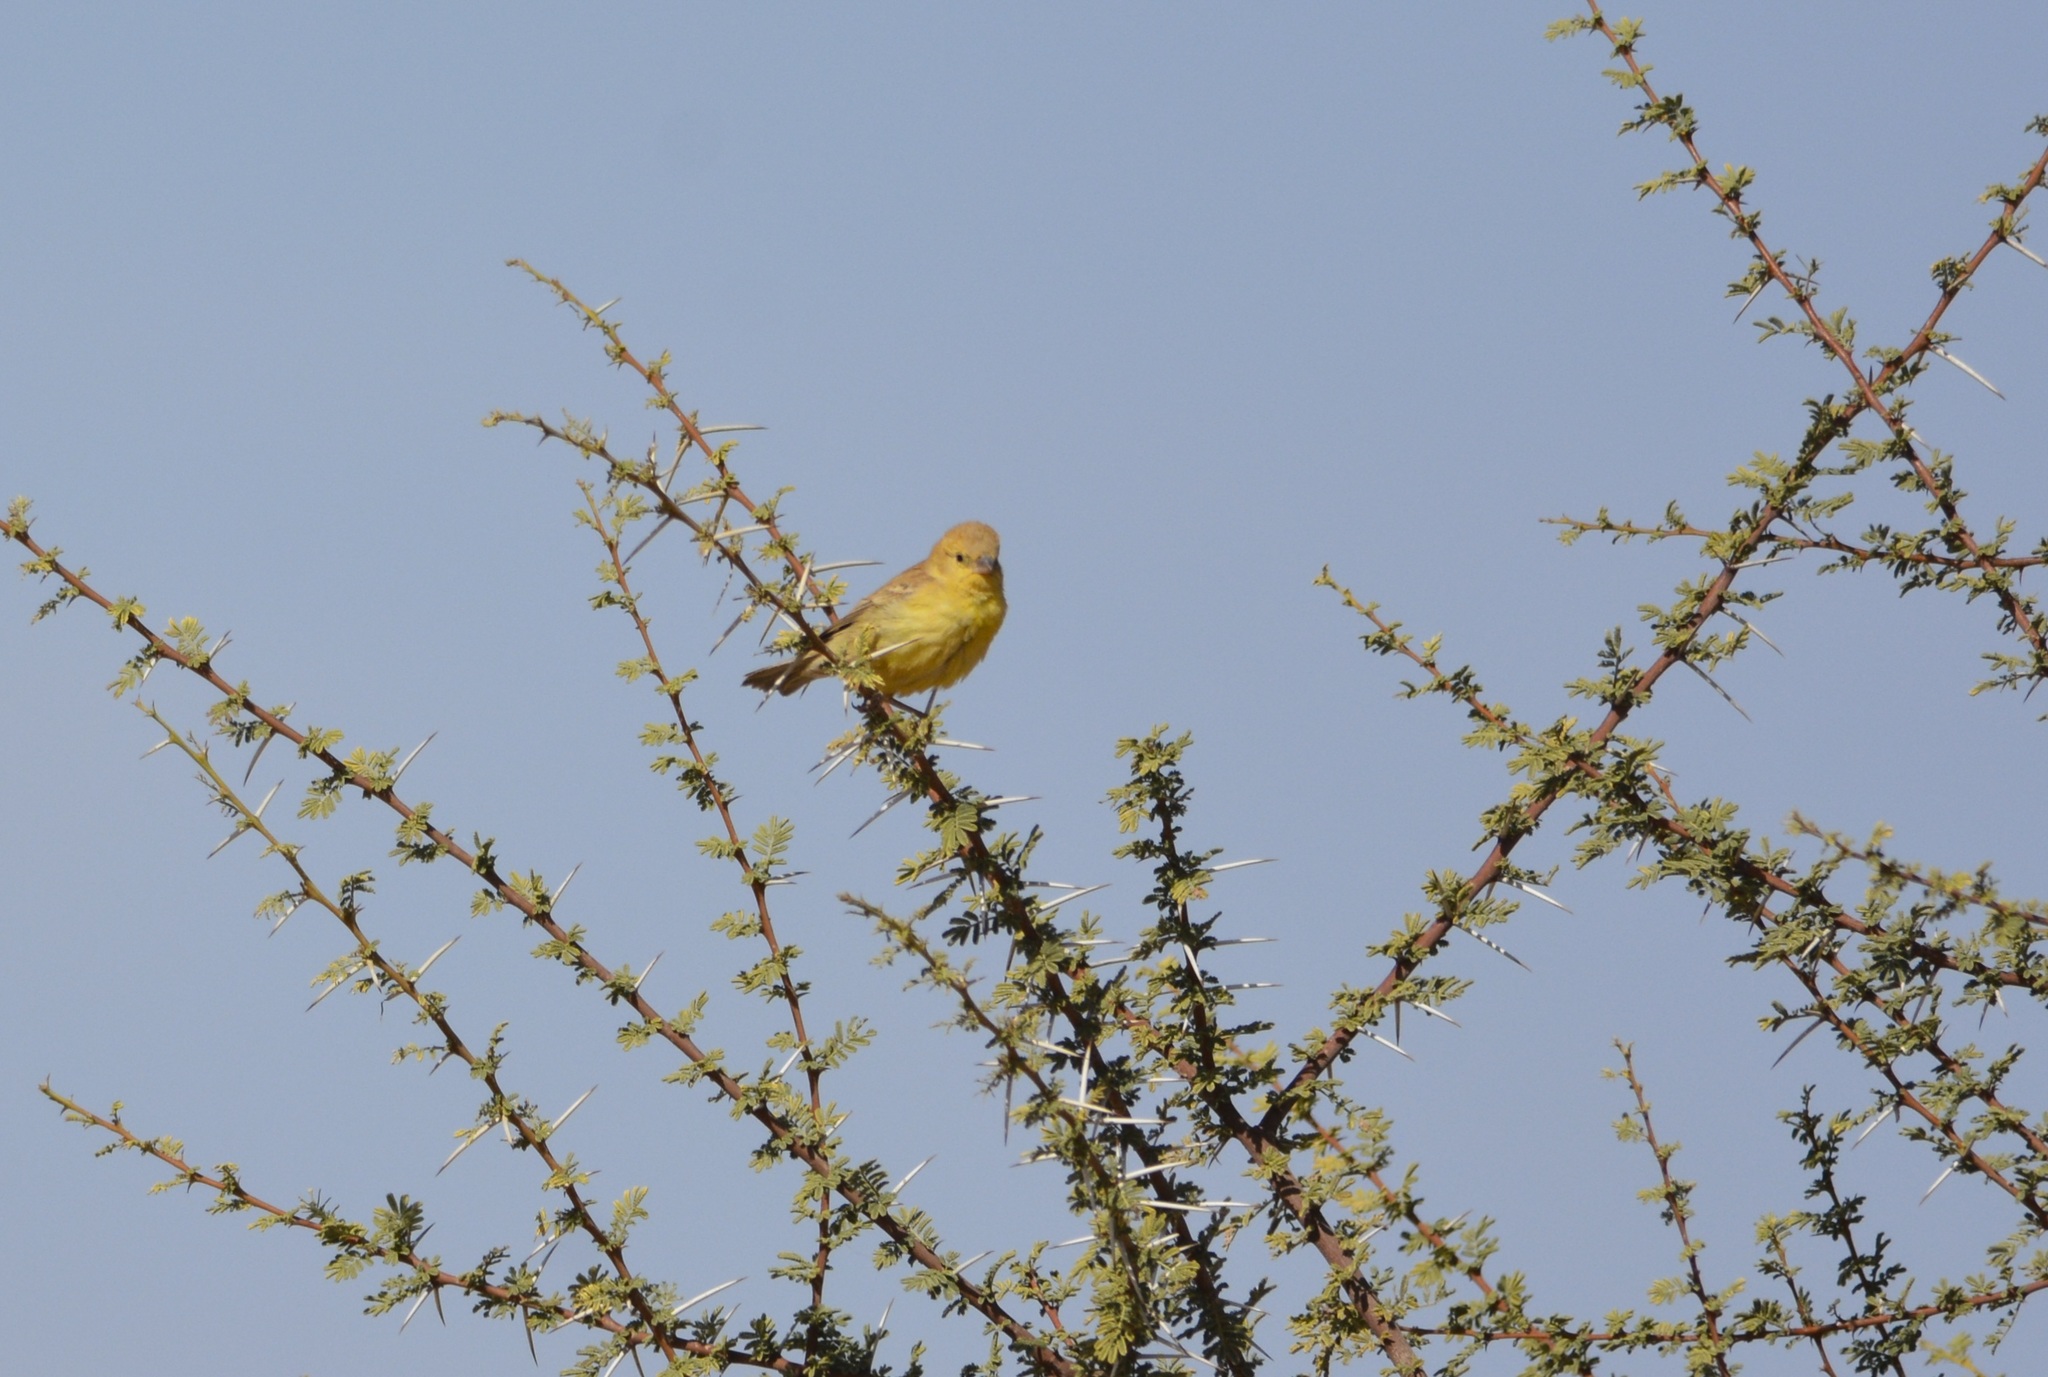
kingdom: Animalia
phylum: Chordata
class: Aves
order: Passeriformes
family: Passeridae
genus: Passer
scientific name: Passer luteus
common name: Sudan golden sparrow
